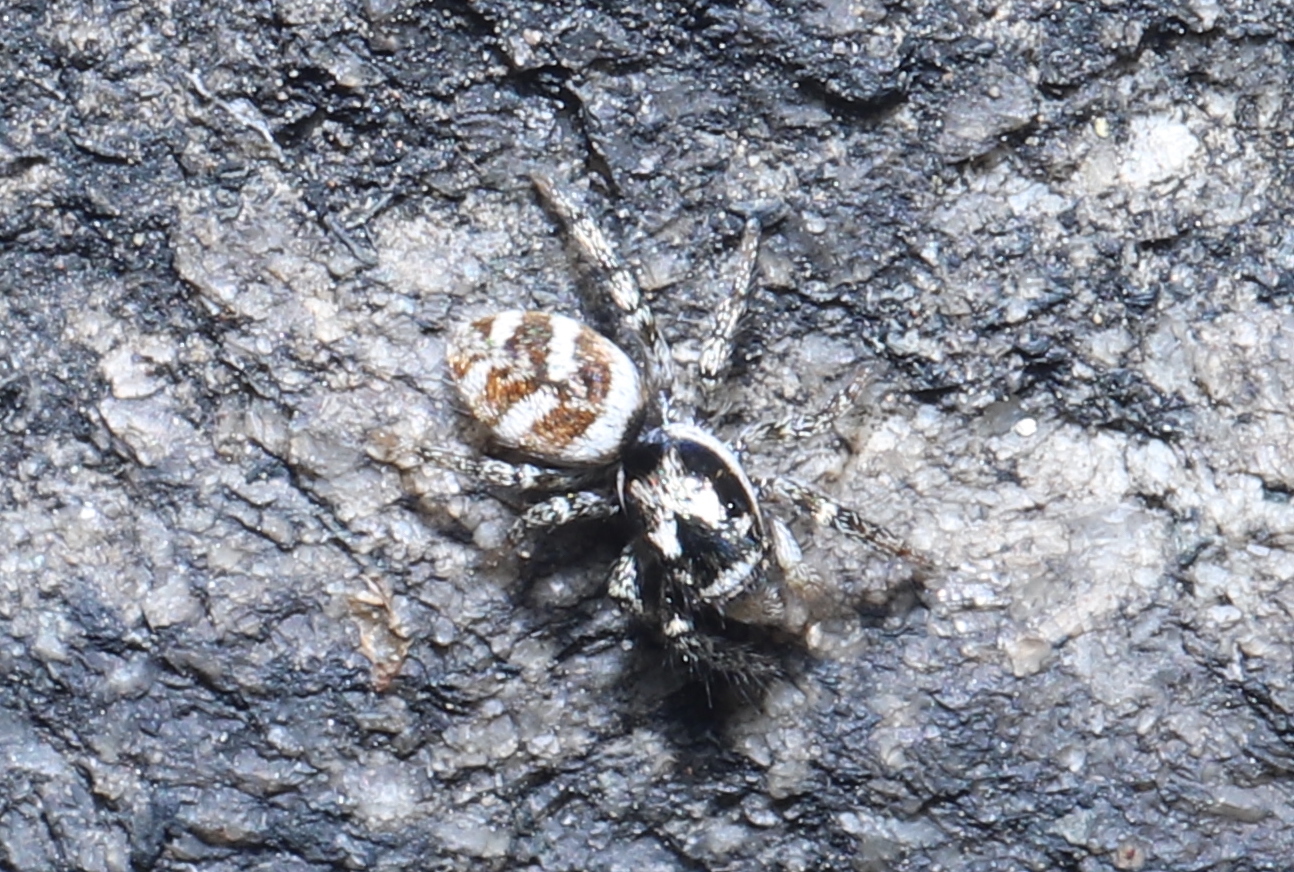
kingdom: Animalia
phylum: Arthropoda
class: Arachnida
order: Araneae
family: Salticidae
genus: Salticus
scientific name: Salticus scenicus
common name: Zebra jumper
